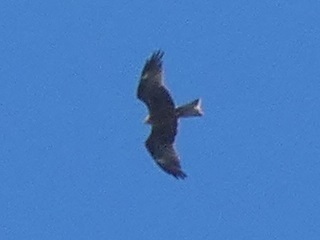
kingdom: Animalia
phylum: Chordata
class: Aves
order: Accipitriformes
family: Accipitridae
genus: Milvus
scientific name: Milvus migrans
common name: Black kite
